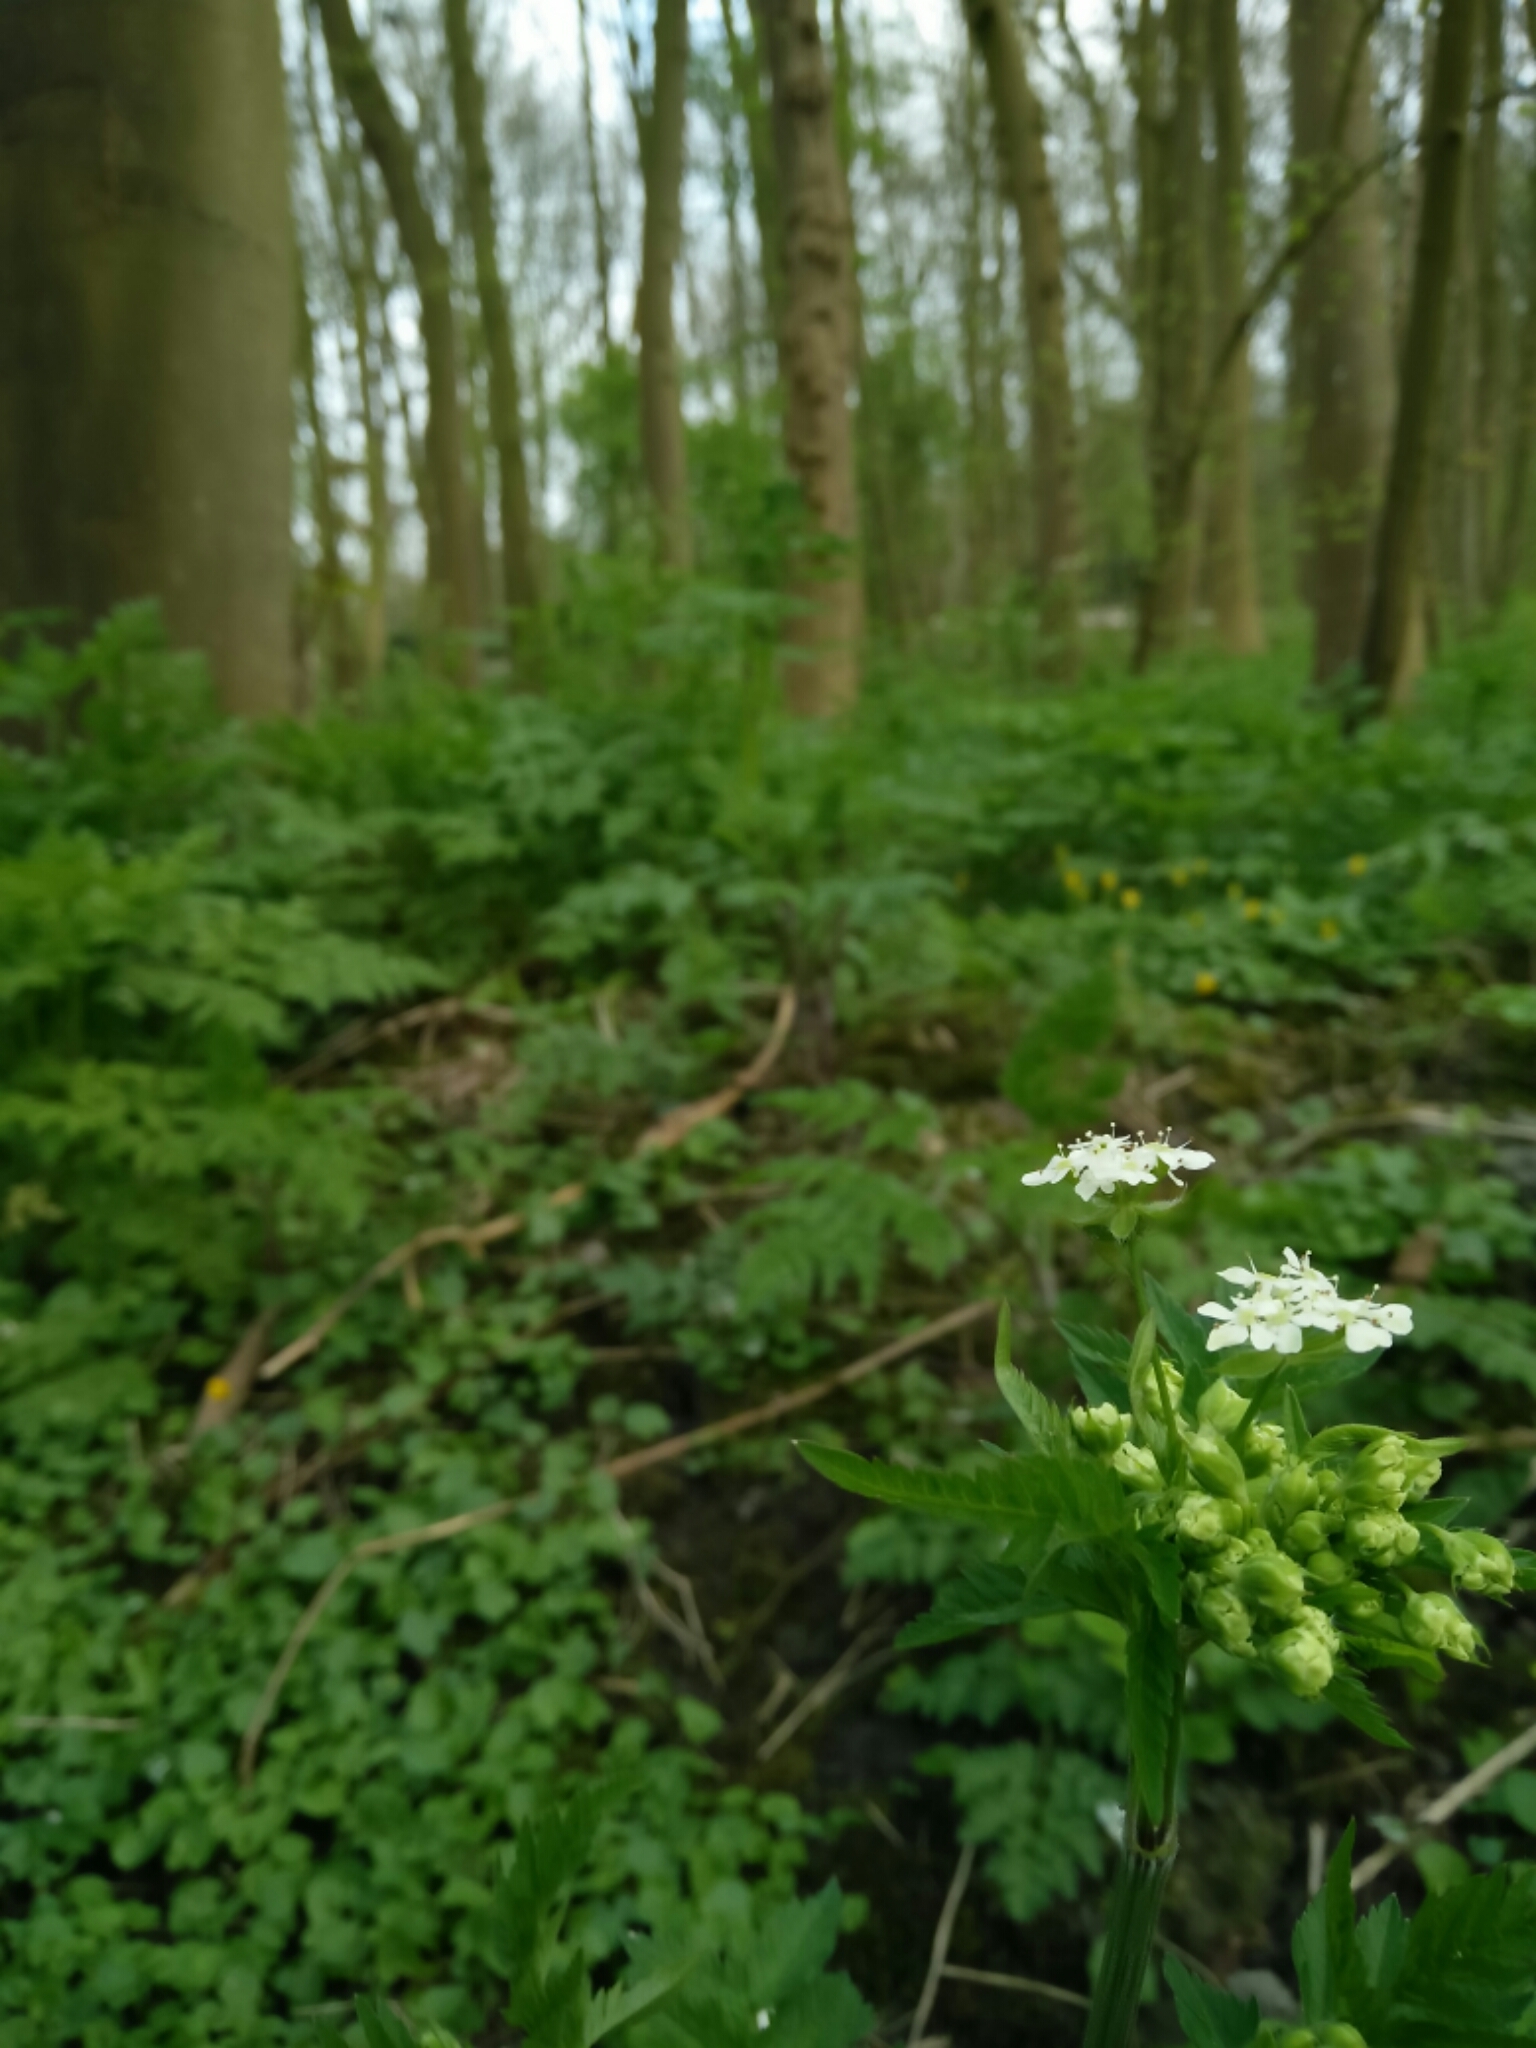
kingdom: Plantae
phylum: Tracheophyta
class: Magnoliopsida
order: Apiales
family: Apiaceae
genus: Anthriscus
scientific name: Anthriscus sylvestris
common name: Cow parsley
